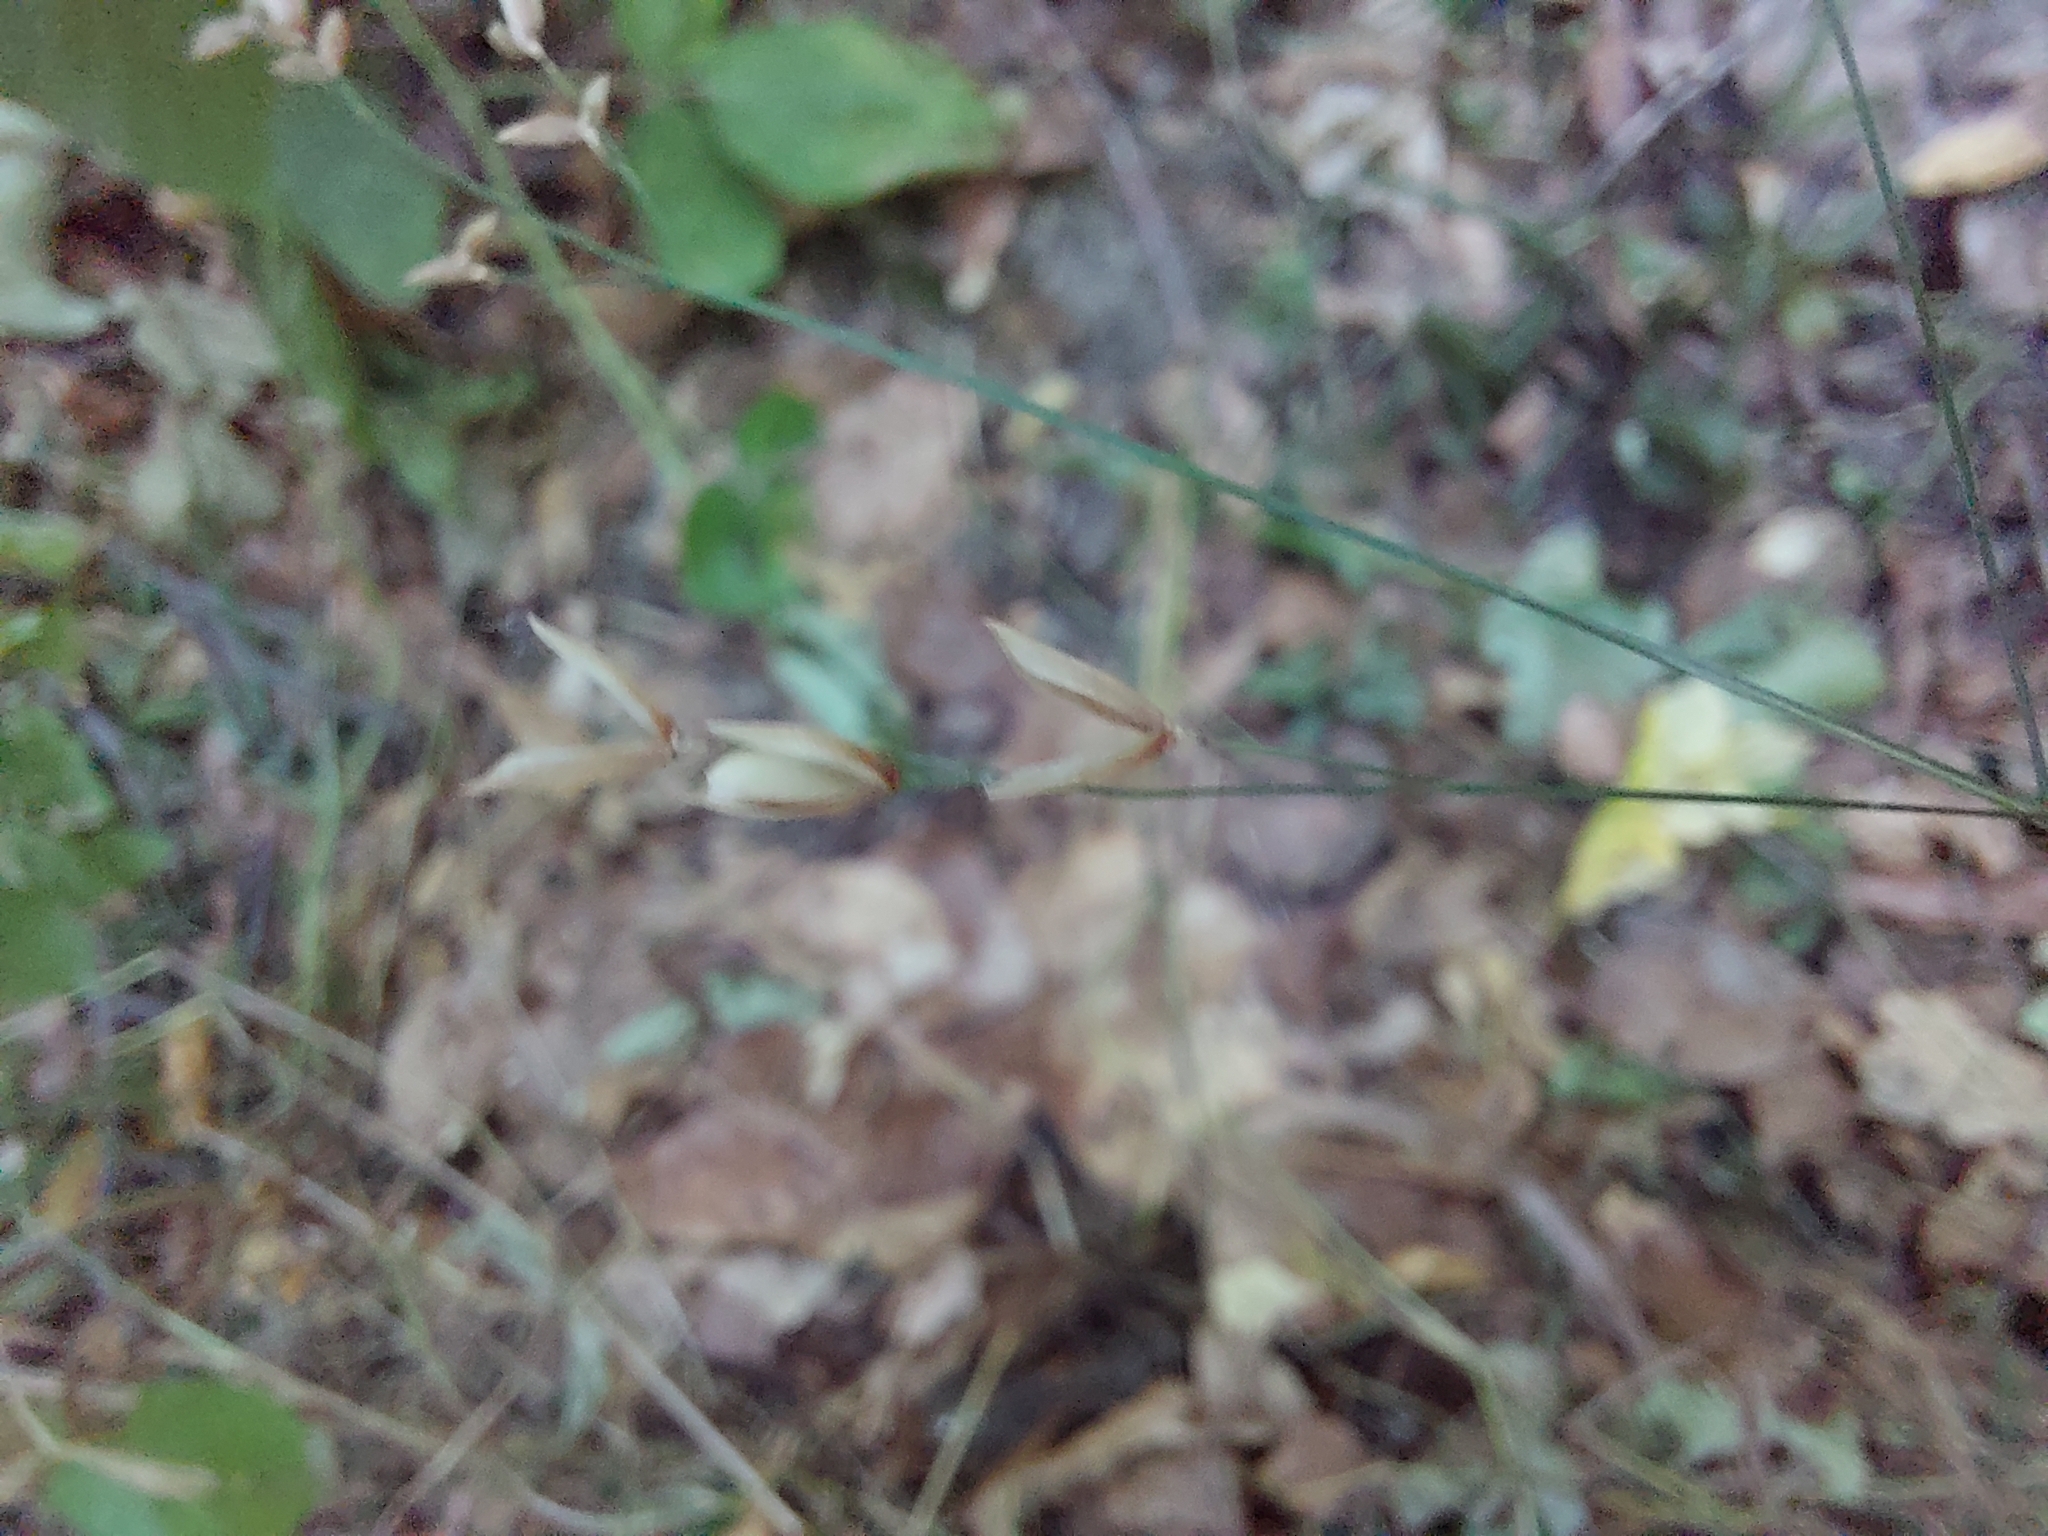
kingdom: Plantae
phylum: Tracheophyta
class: Liliopsida
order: Poales
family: Poaceae
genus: Melica
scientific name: Melica uniflora
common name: Wood melick
